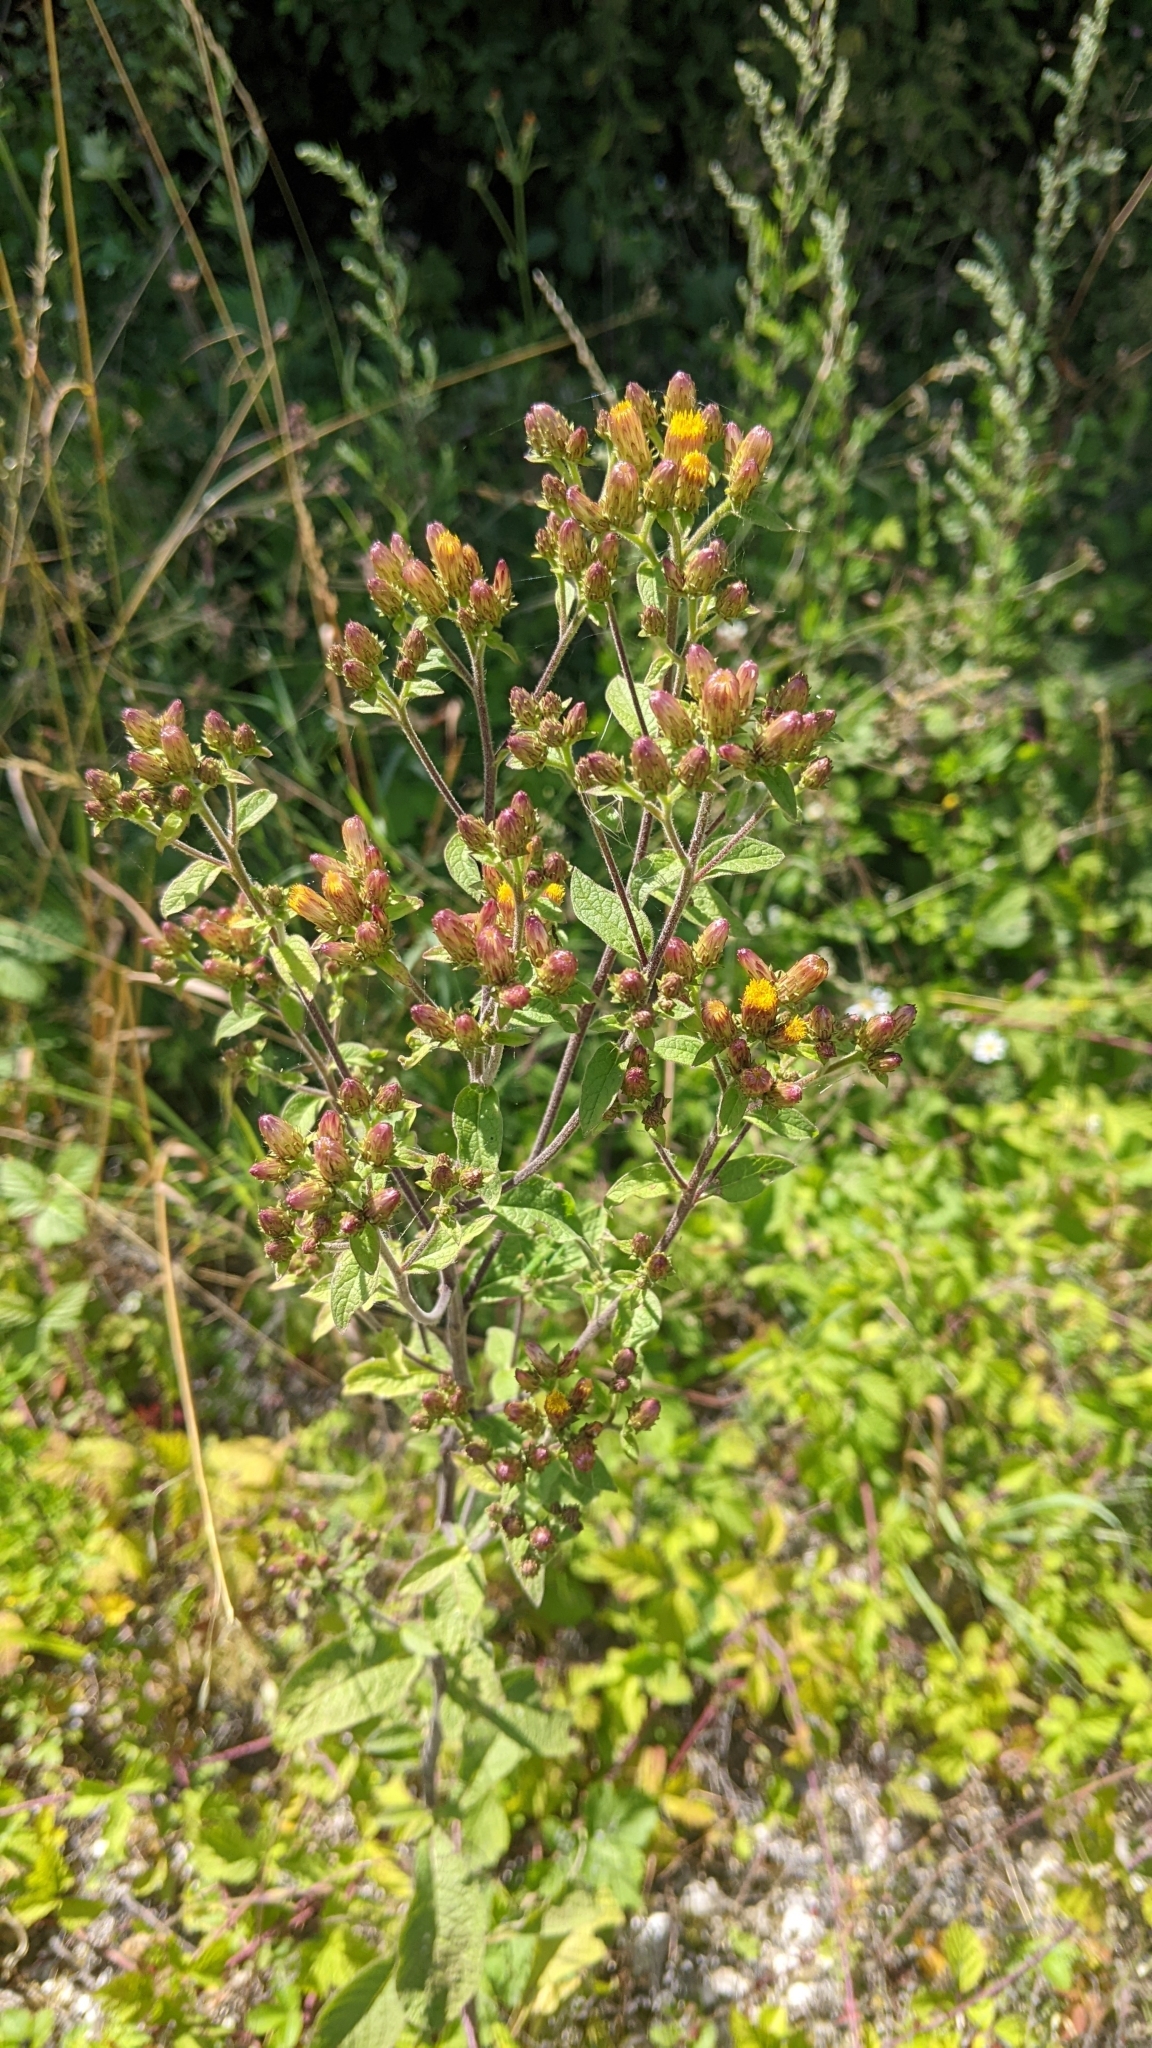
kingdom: Plantae
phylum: Tracheophyta
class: Magnoliopsida
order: Asterales
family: Asteraceae
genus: Pentanema
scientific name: Pentanema squarrosum
